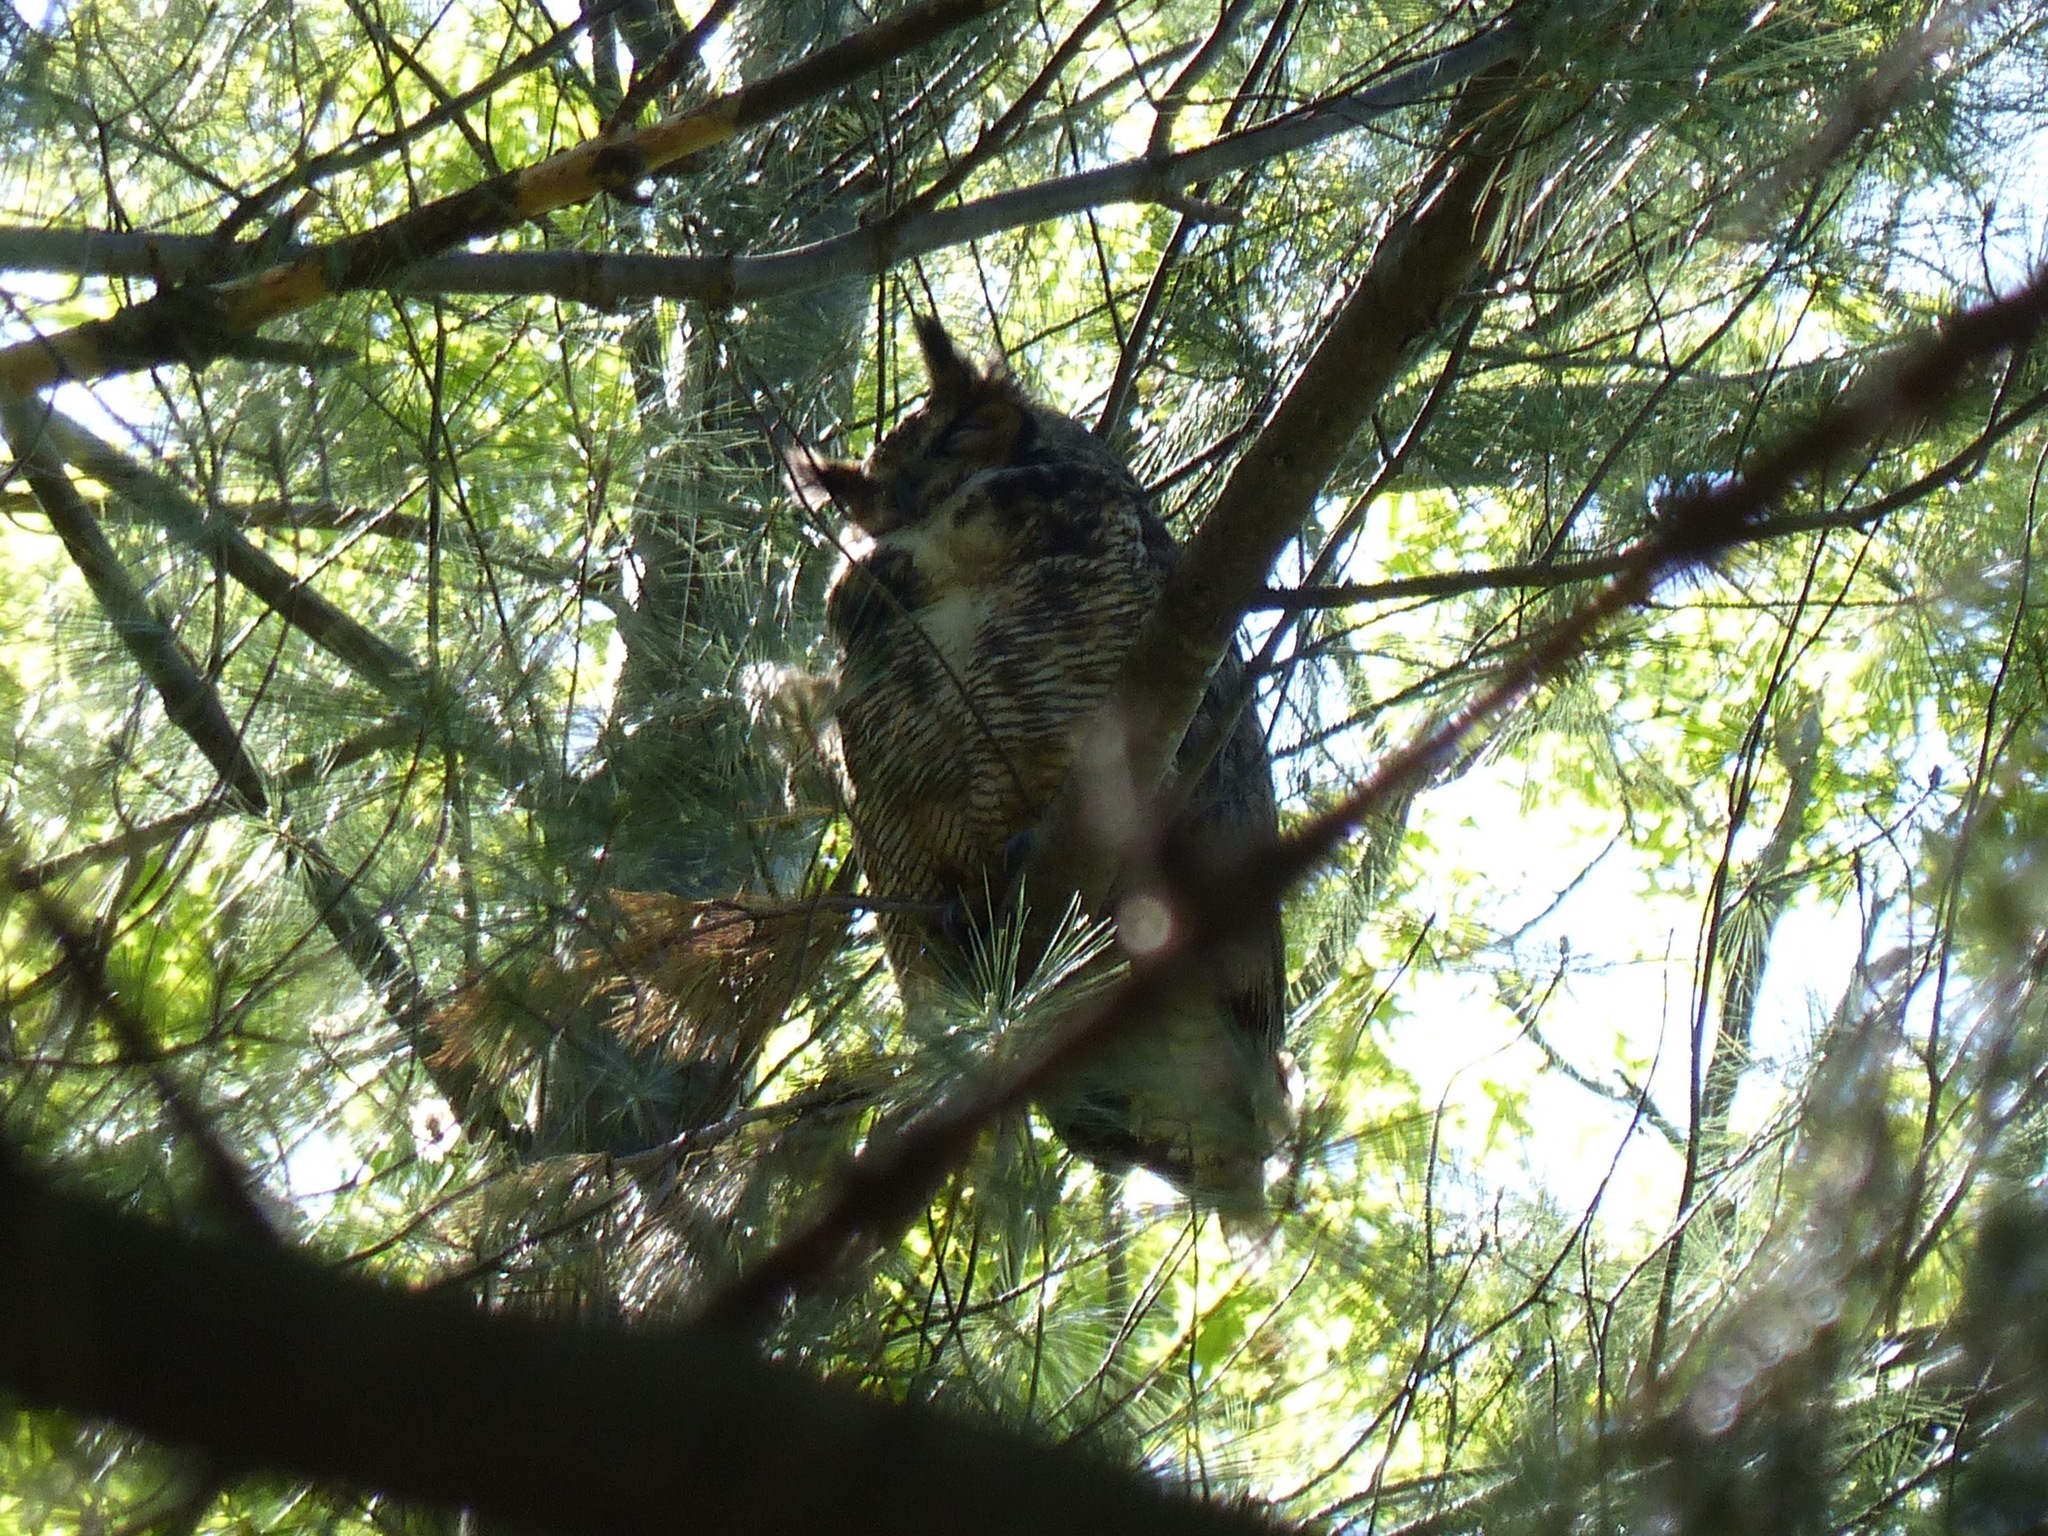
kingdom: Animalia
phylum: Chordata
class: Aves
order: Strigiformes
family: Strigidae
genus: Bubo
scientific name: Bubo virginianus
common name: Great horned owl
